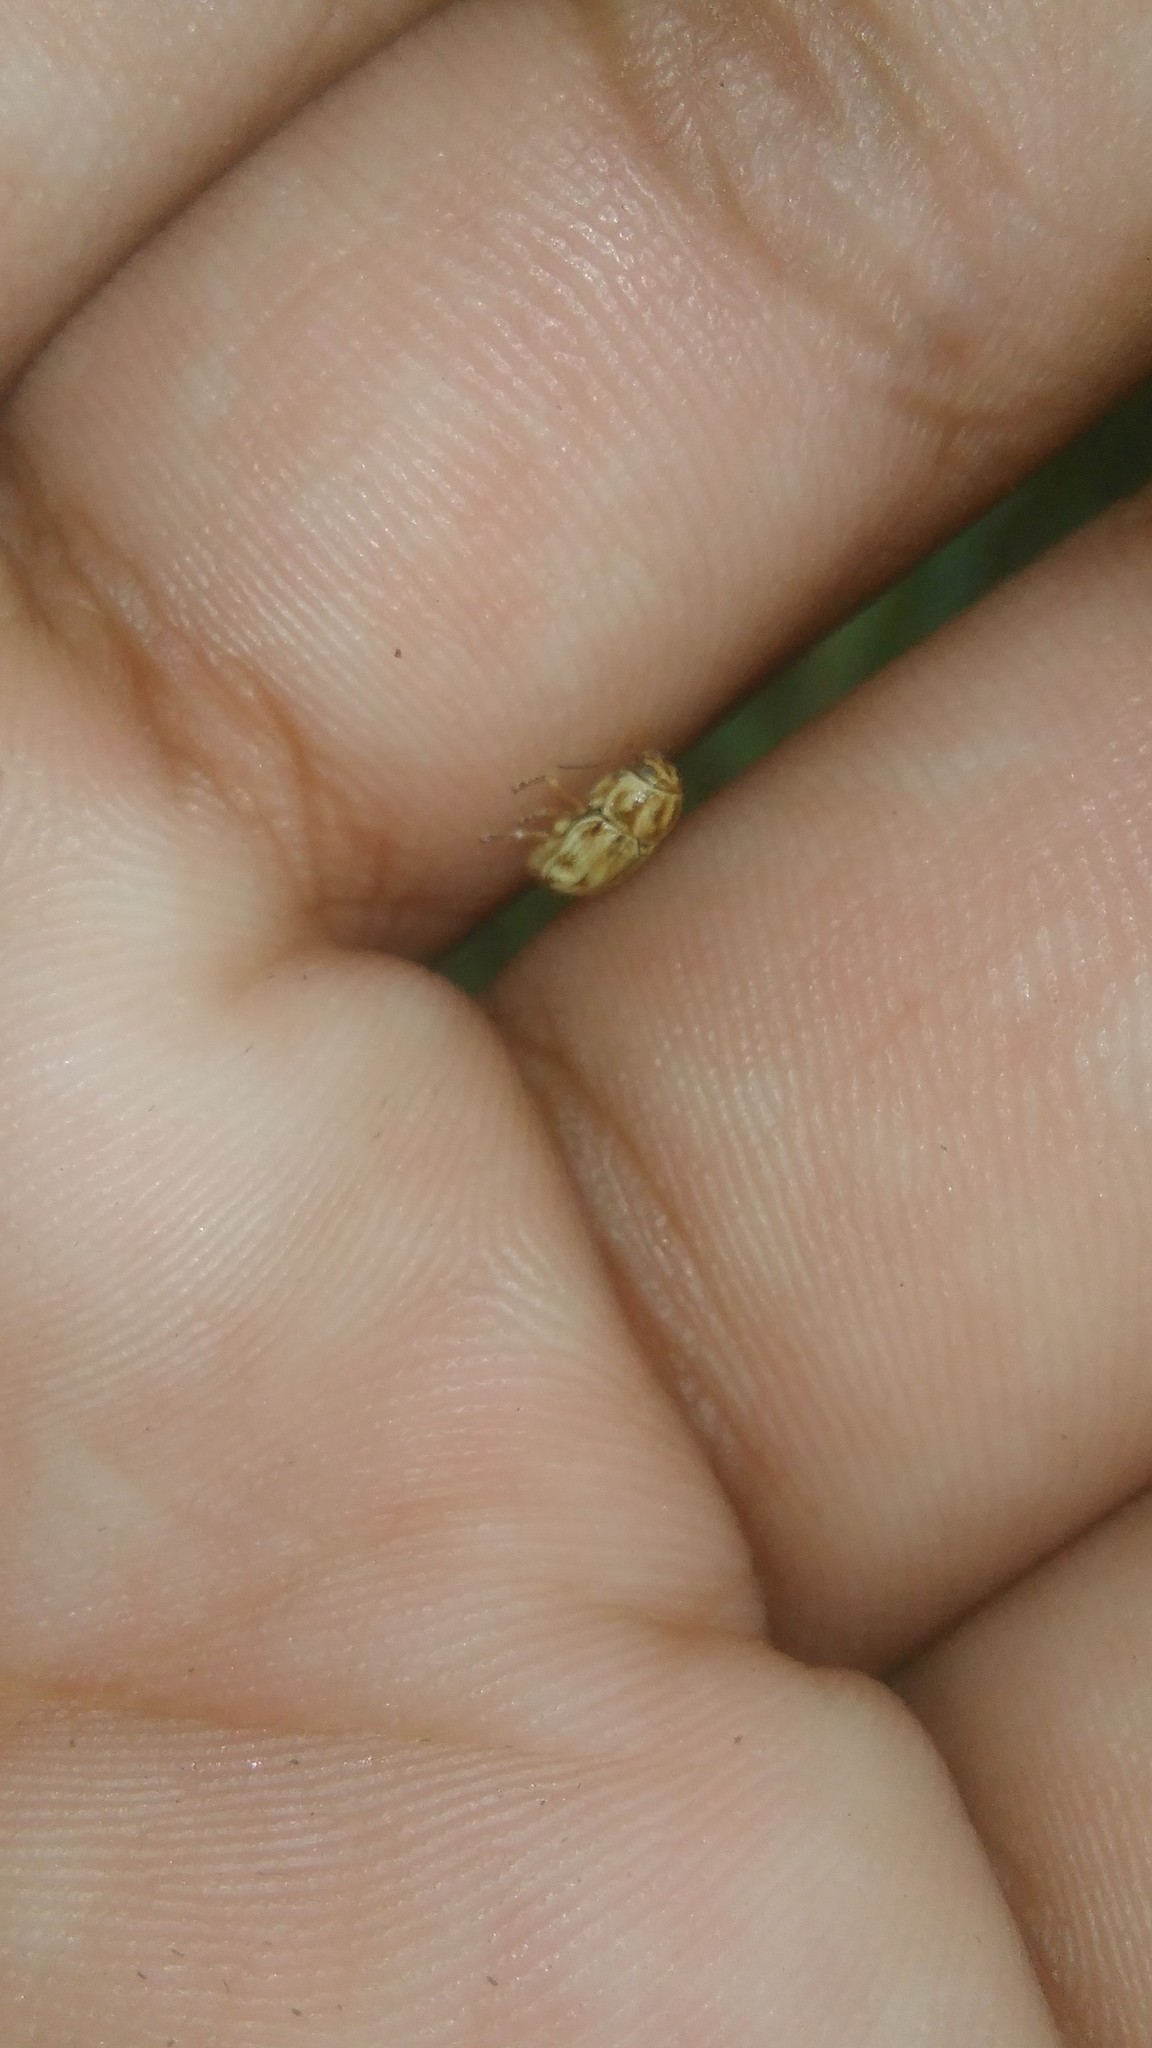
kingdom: Animalia
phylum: Arthropoda
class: Insecta
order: Coleoptera
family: Chrysomelidae
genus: Pachybrachis
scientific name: Pachybrachis
